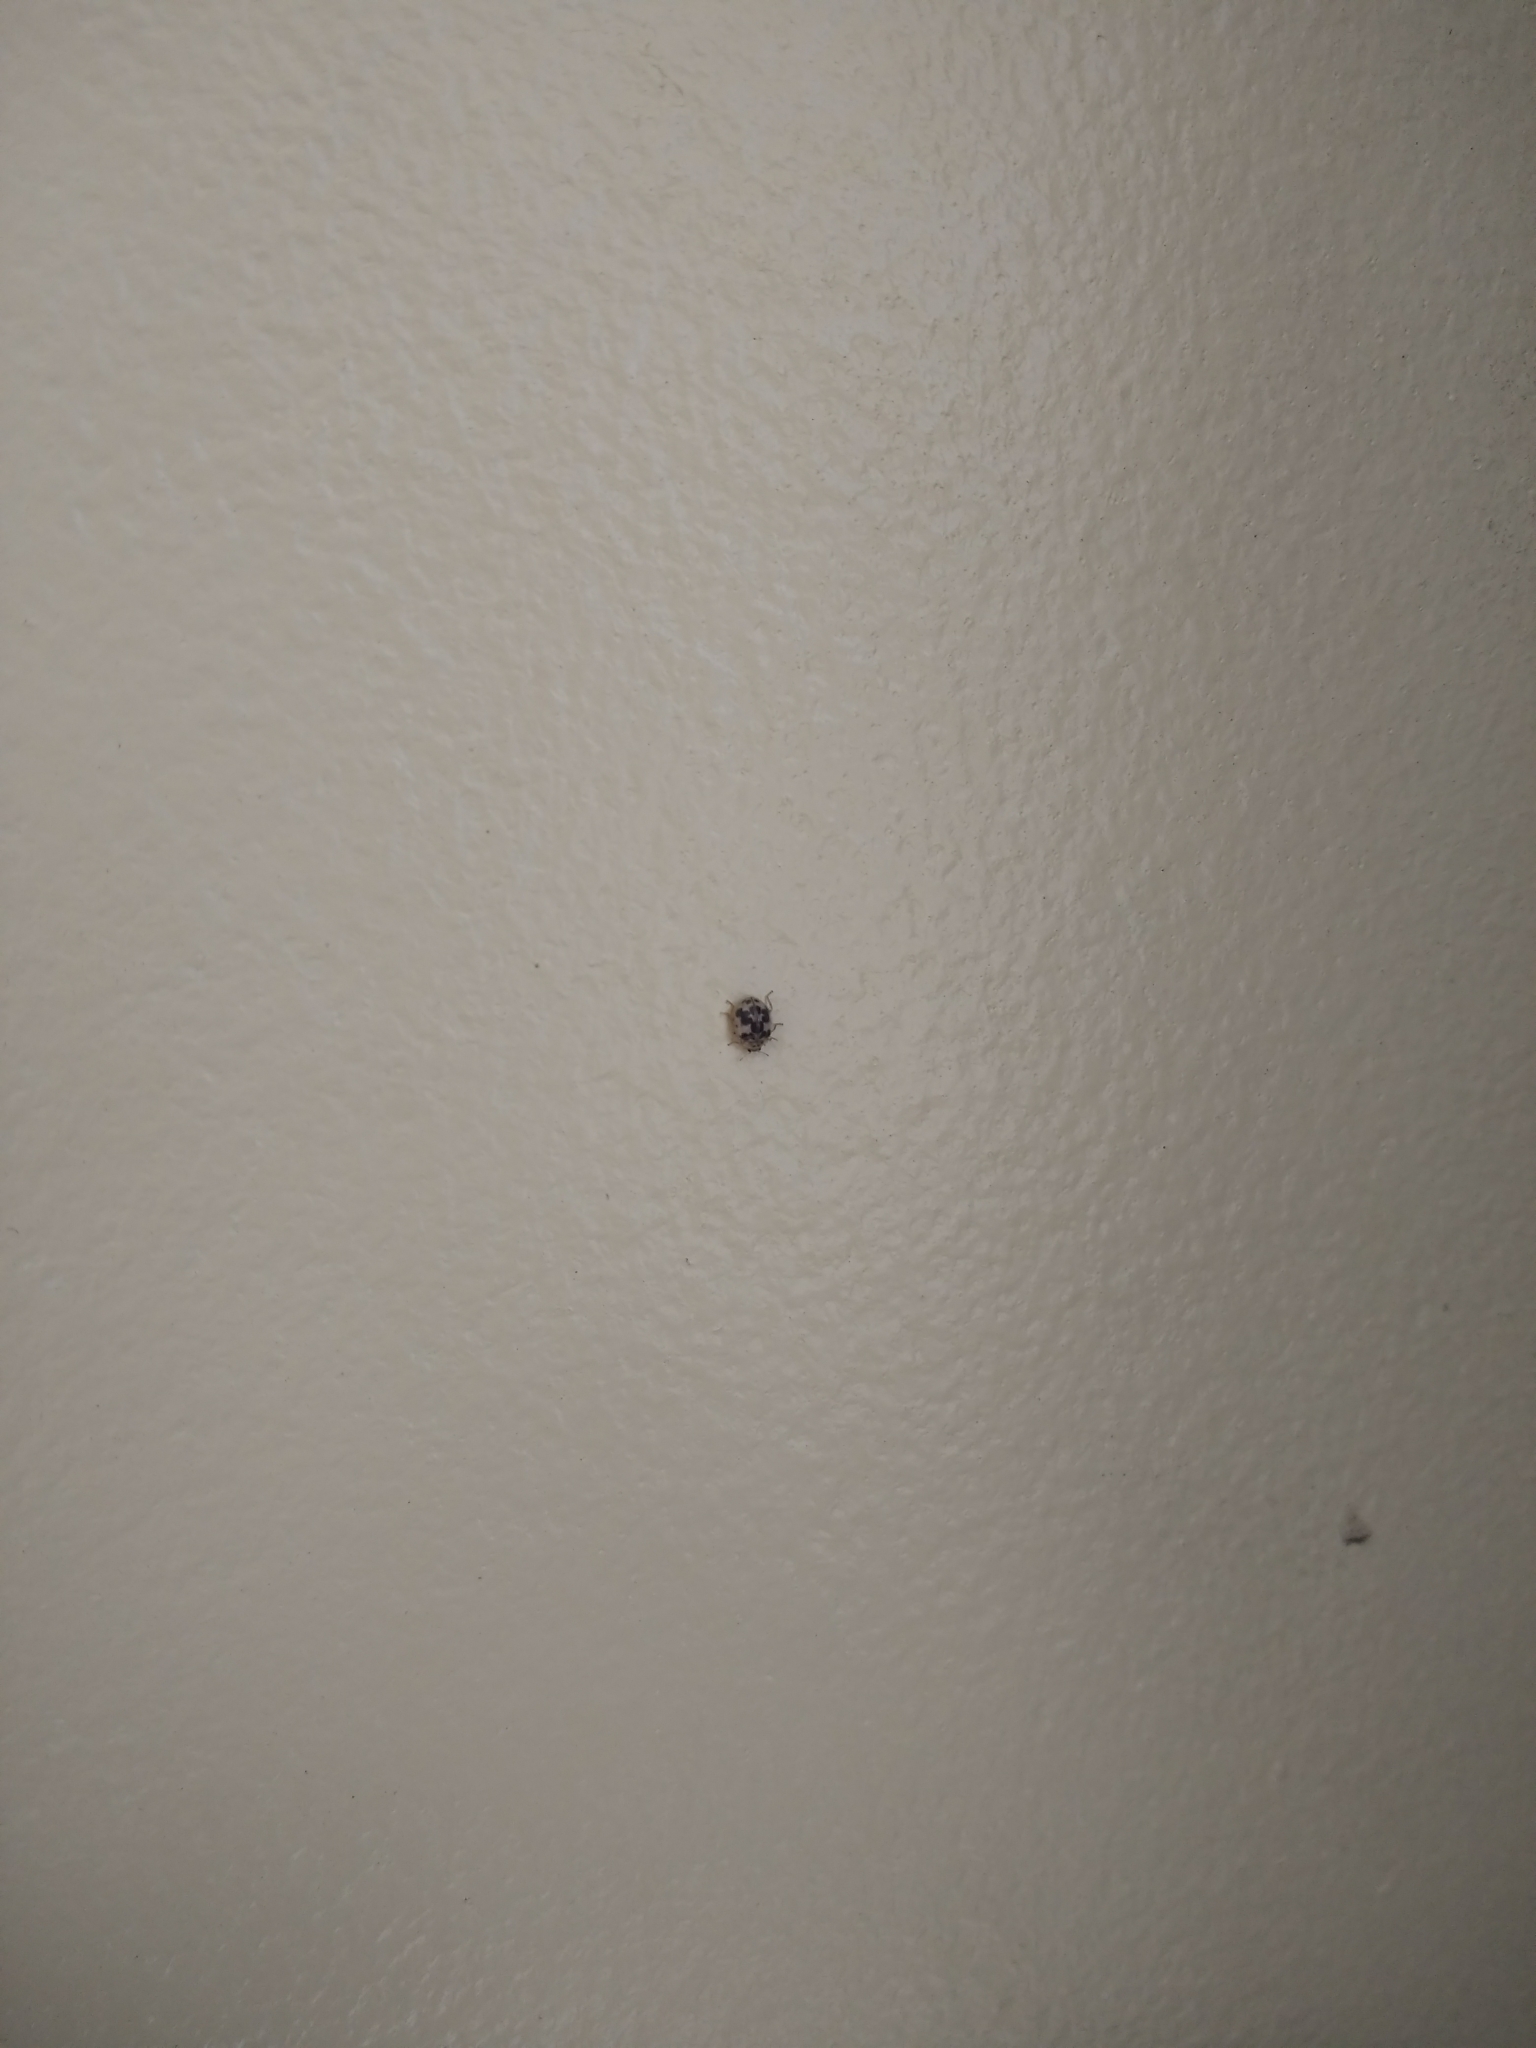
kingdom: Animalia
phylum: Arthropoda
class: Insecta
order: Coleoptera
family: Coccinellidae
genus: Psyllobora
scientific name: Psyllobora borealis
